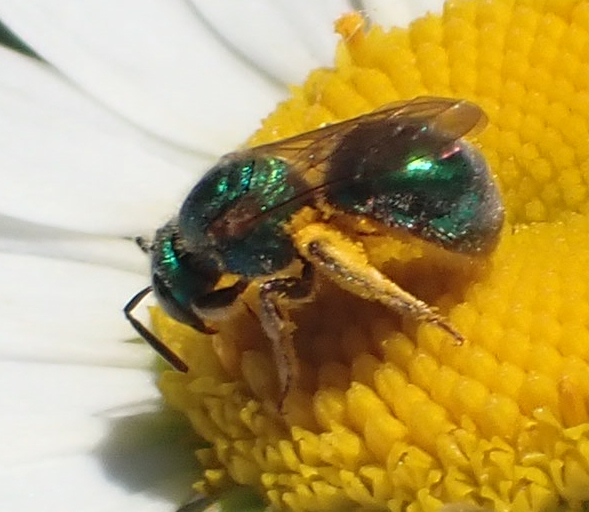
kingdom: Animalia
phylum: Arthropoda
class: Insecta
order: Hymenoptera
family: Halictidae
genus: Augochlorella
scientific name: Augochlorella aurata
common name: Golden sweat bee
